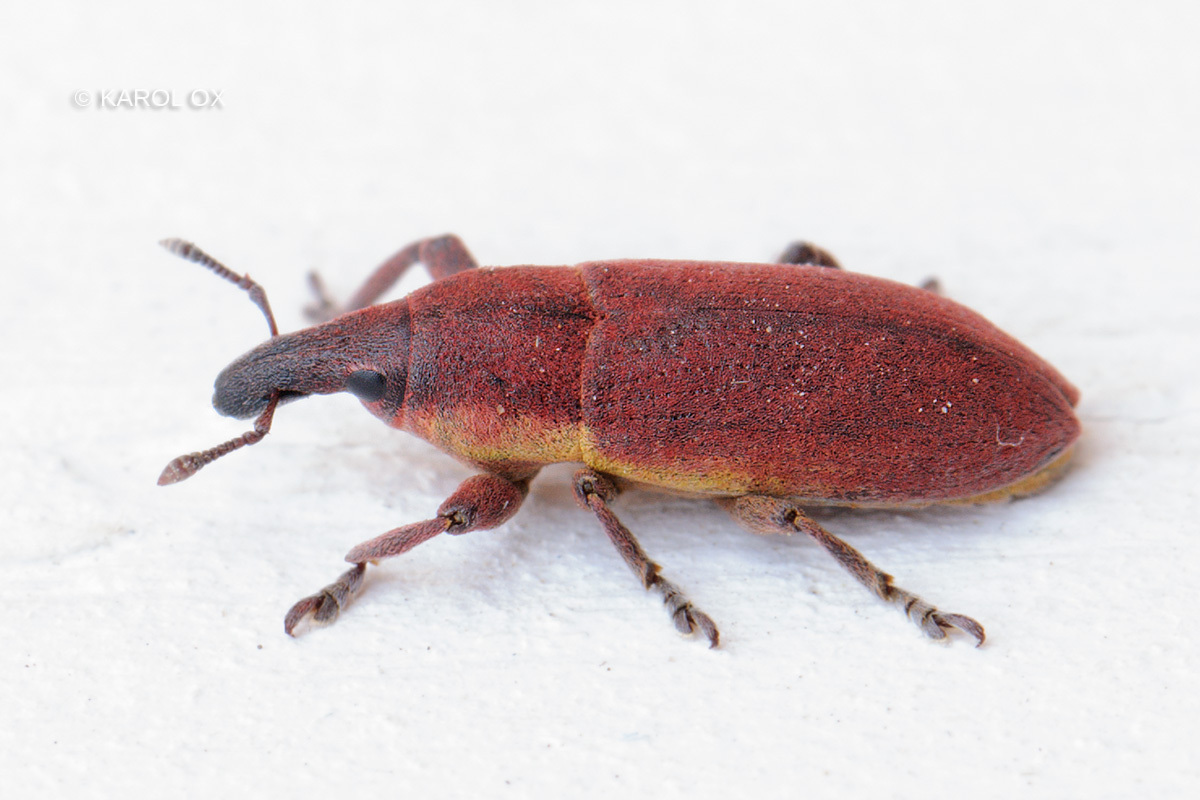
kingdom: Animalia
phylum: Arthropoda
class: Insecta
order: Coleoptera
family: Curculionidae
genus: Lixus
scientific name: Lixus angustus
